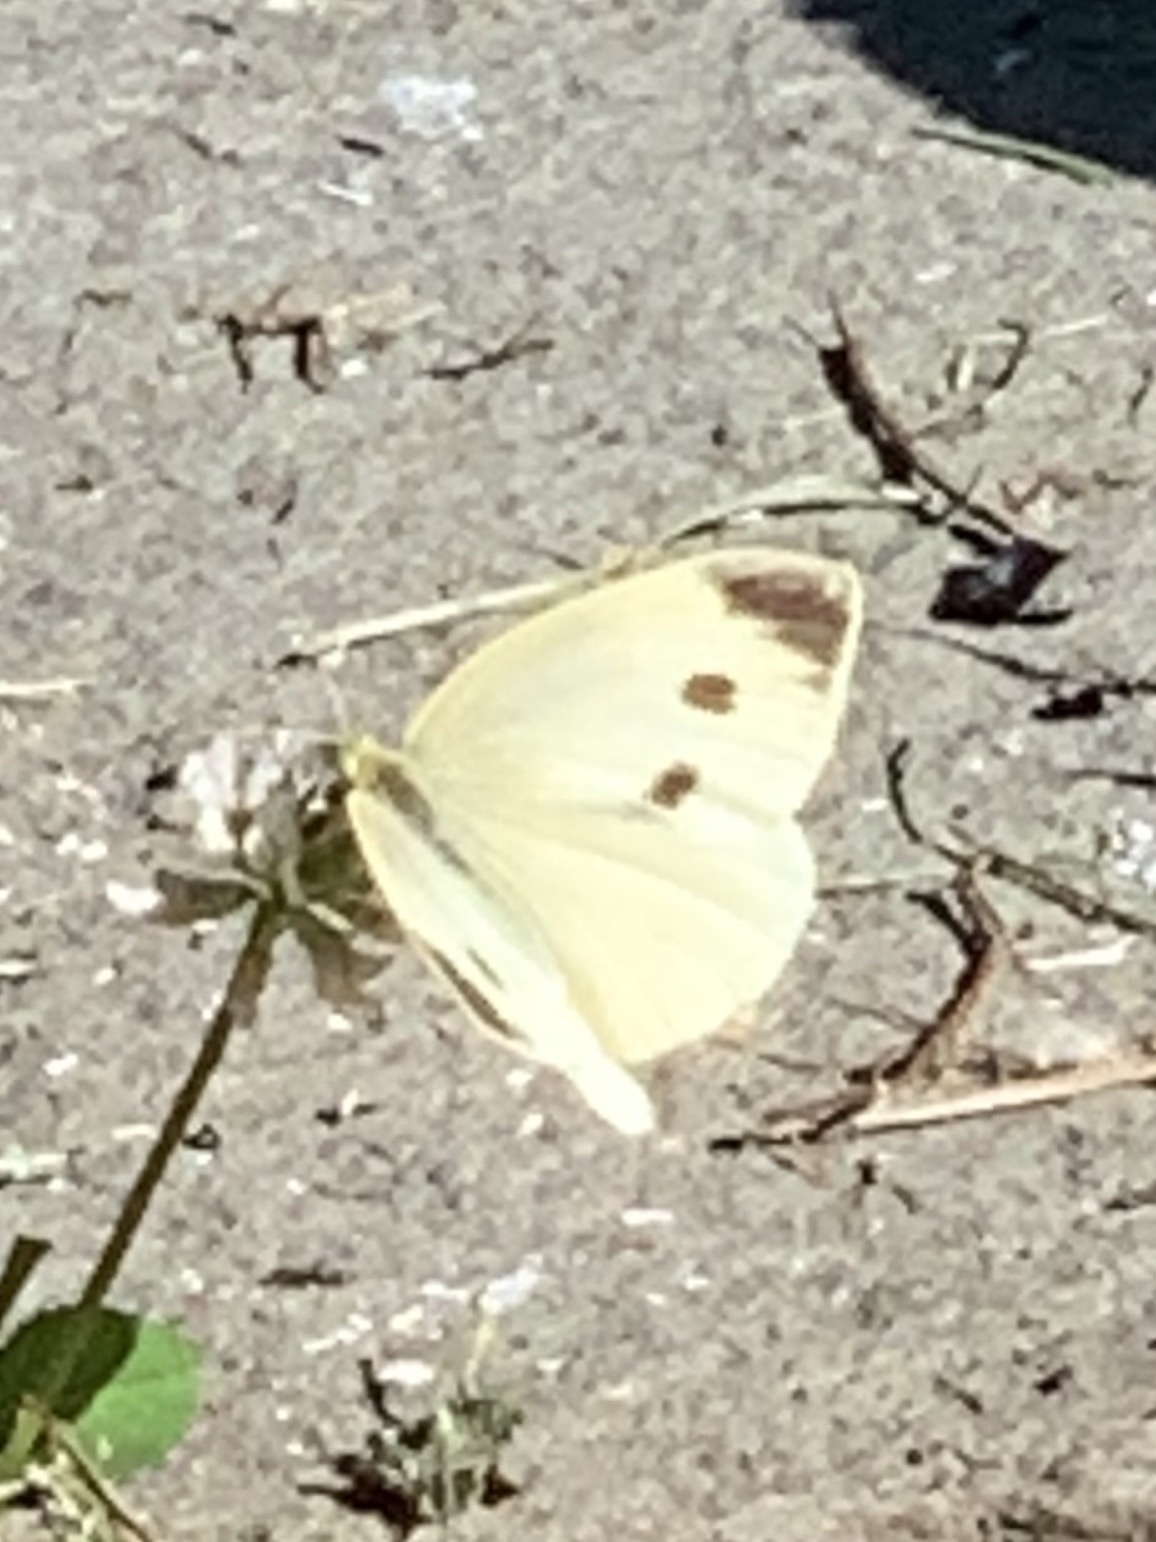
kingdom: Animalia
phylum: Arthropoda
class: Insecta
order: Lepidoptera
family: Pieridae
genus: Pieris
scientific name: Pieris rapae
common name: Small white
